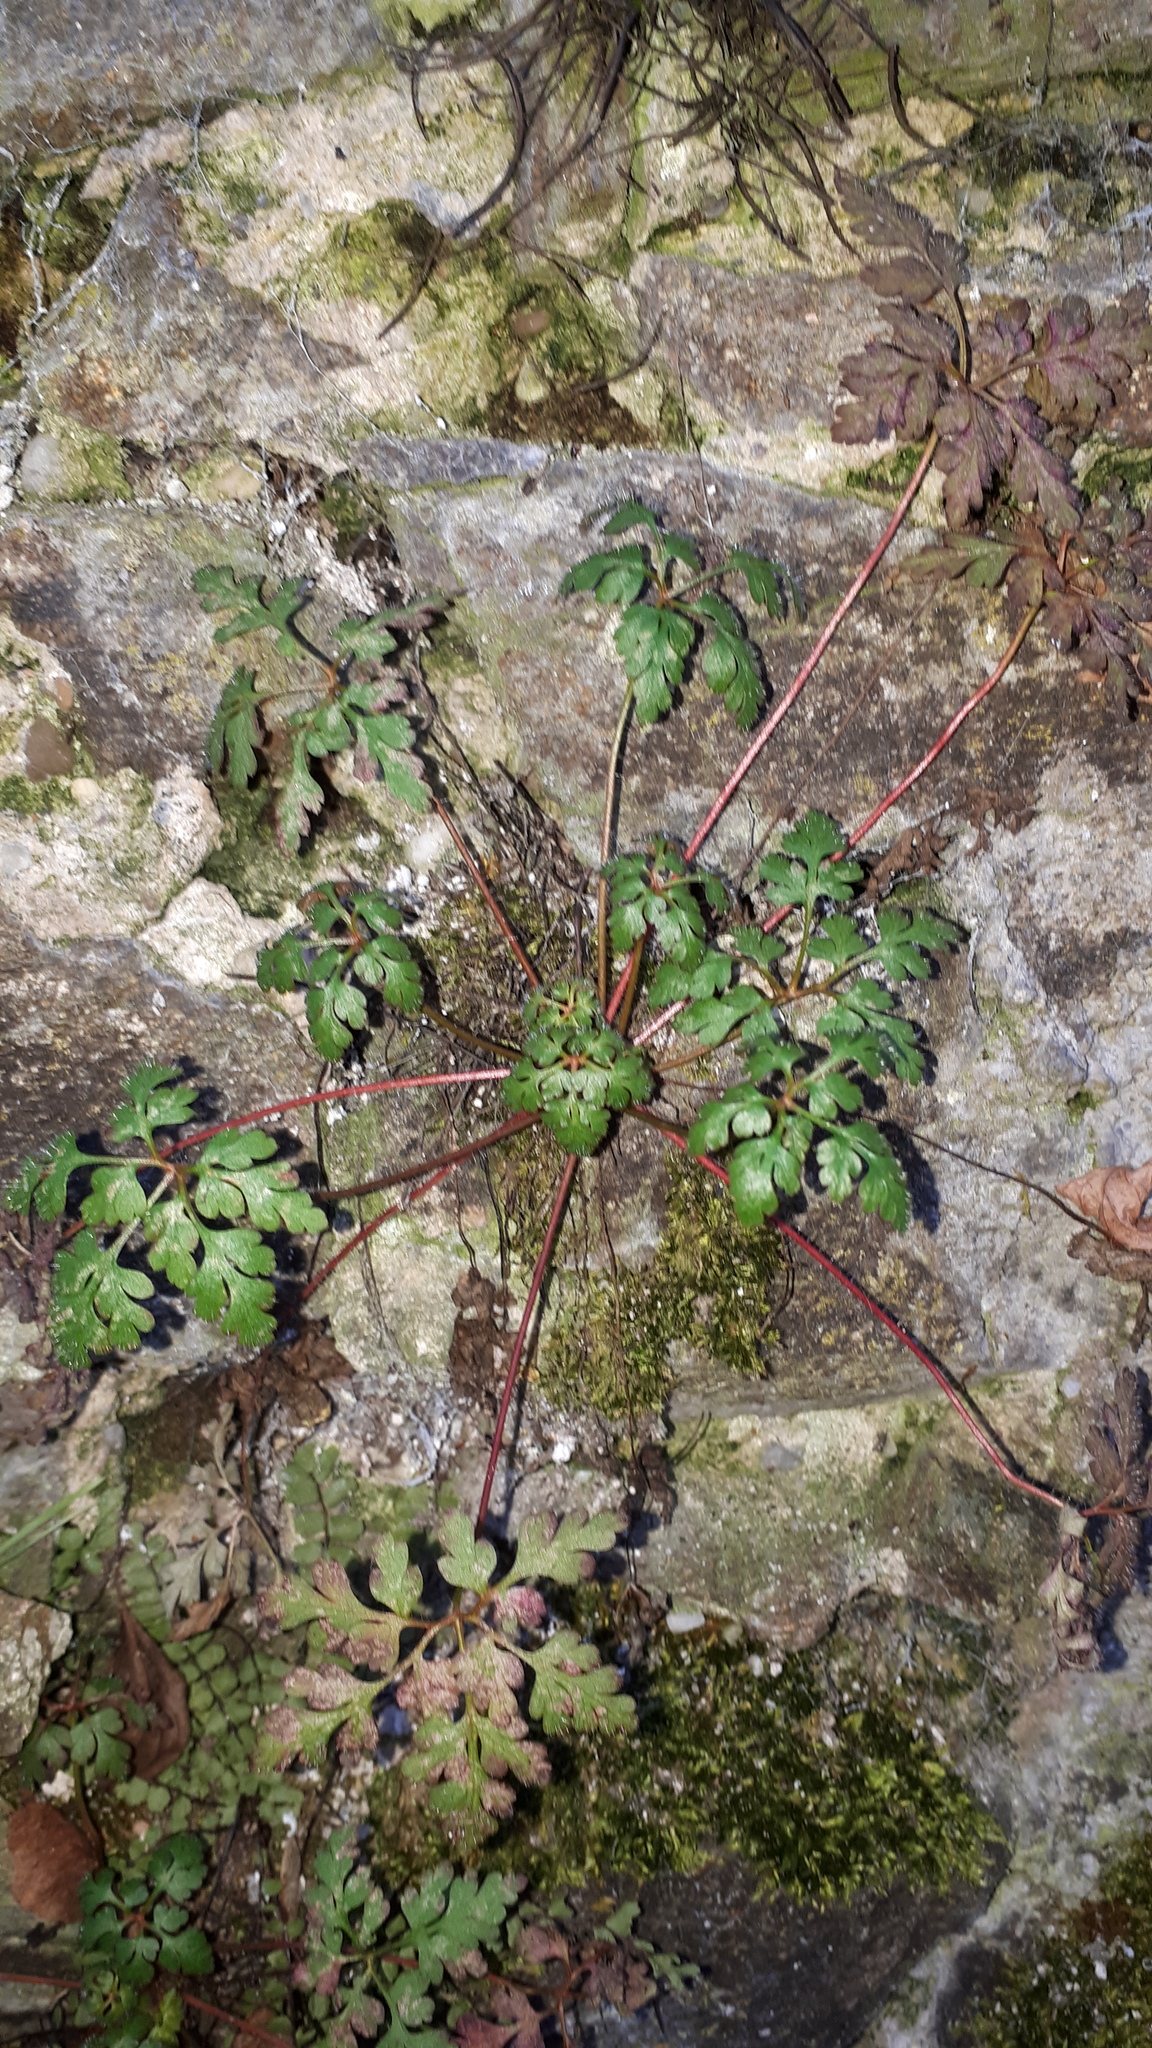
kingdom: Plantae
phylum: Tracheophyta
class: Magnoliopsida
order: Geraniales
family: Geraniaceae
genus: Geranium
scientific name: Geranium robertianum
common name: Herb-robert
